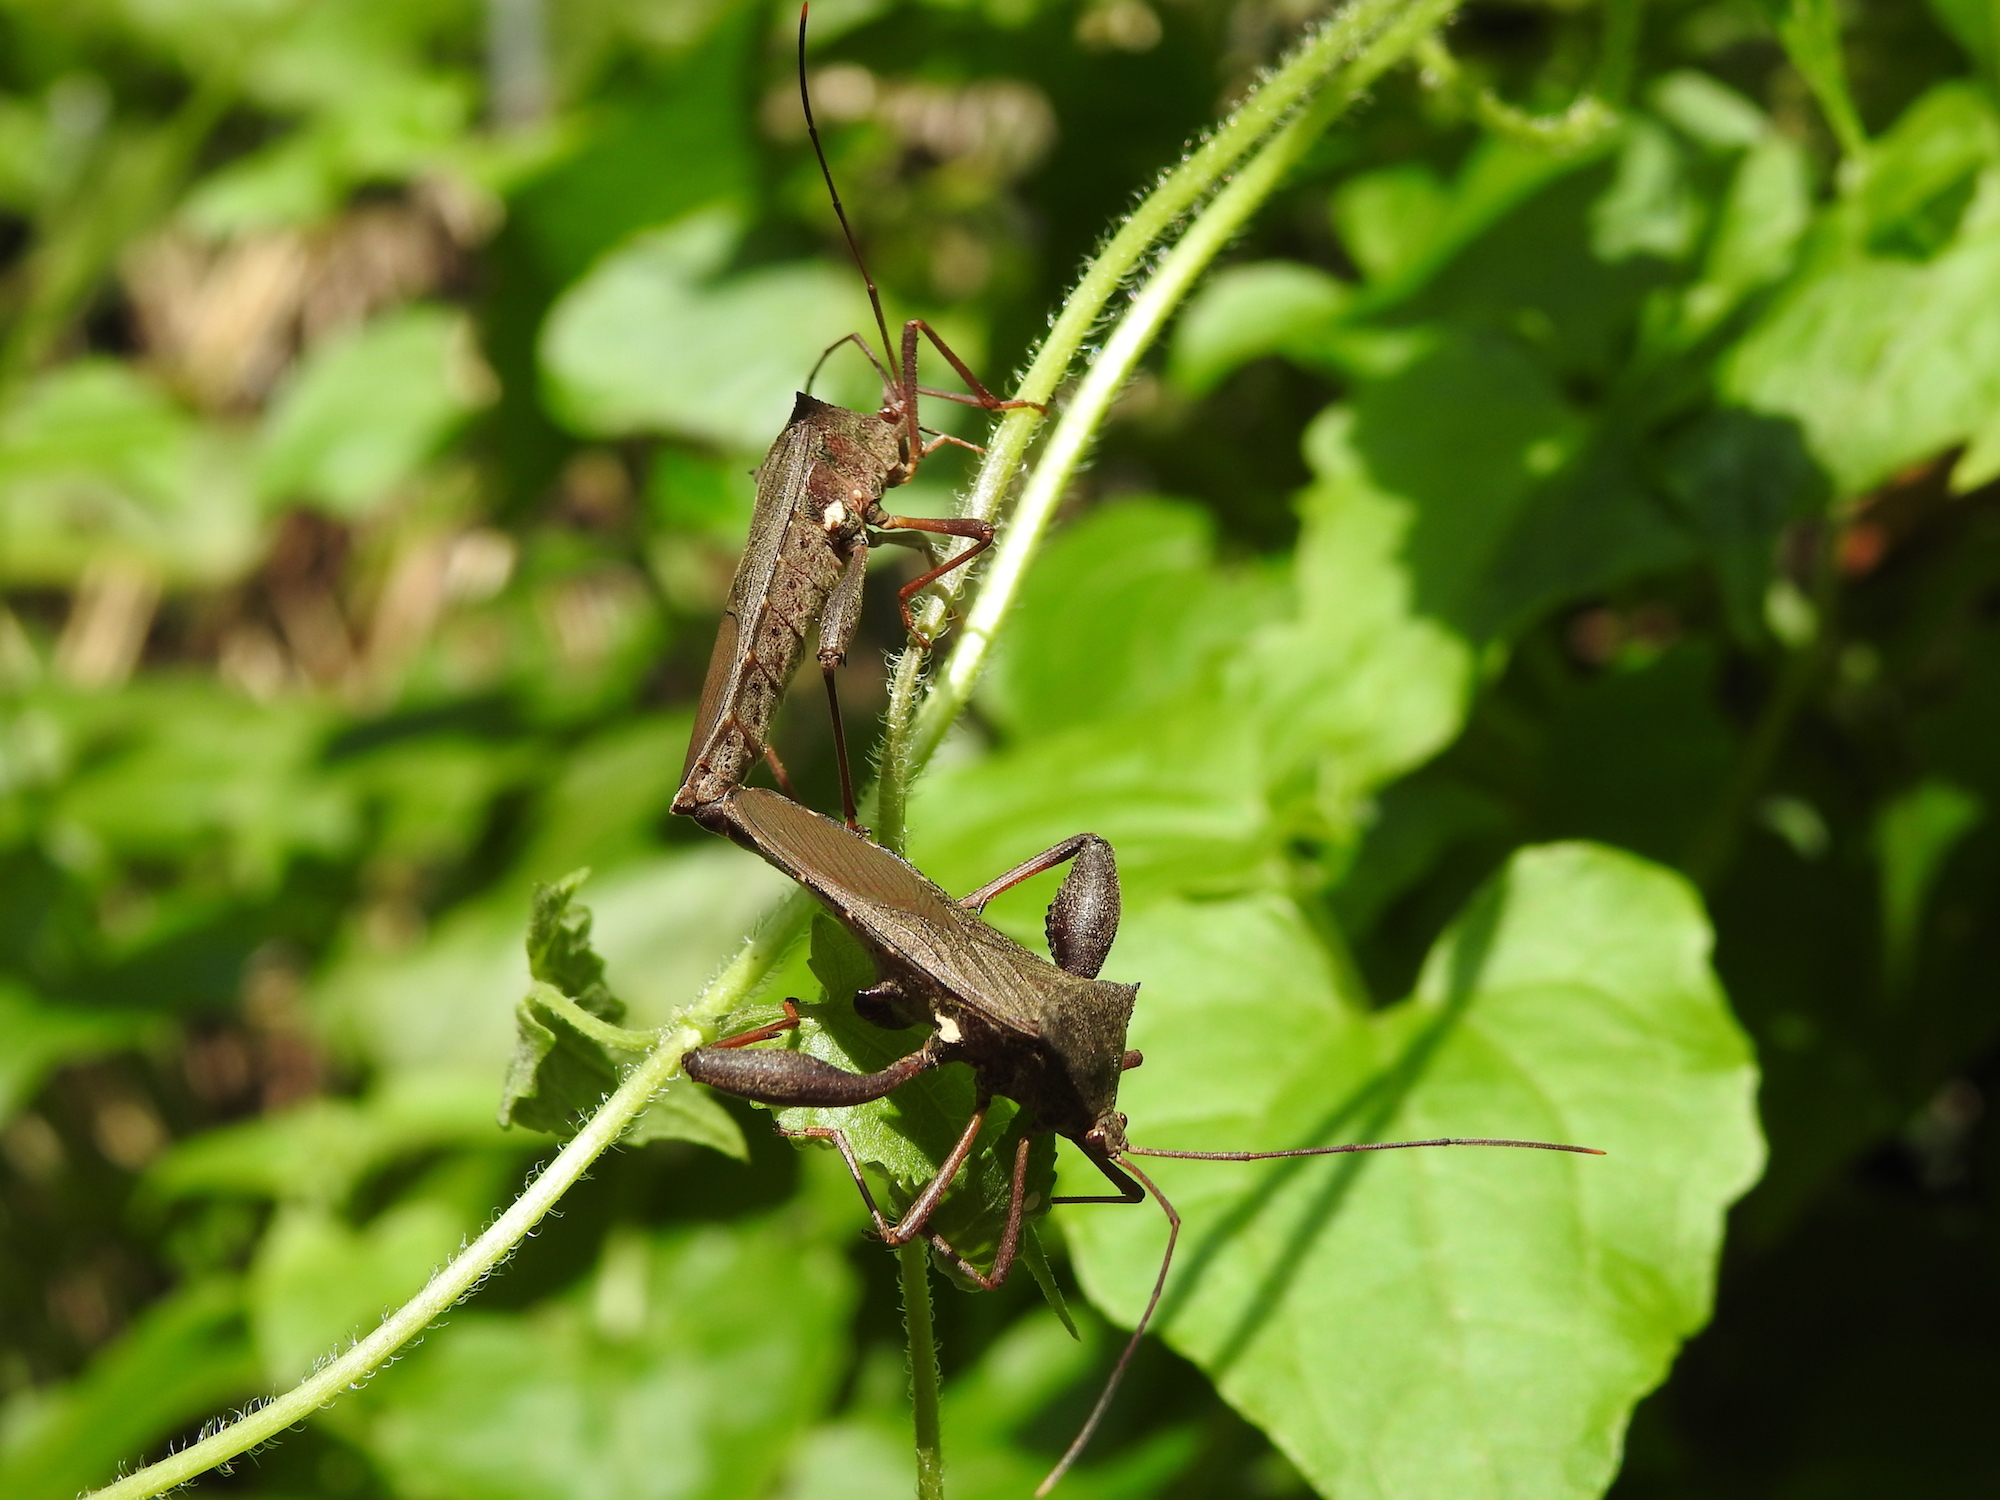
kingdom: Animalia
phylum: Arthropoda
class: Insecta
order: Hemiptera
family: Coreidae
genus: Mictis
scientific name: Mictis longicornis
